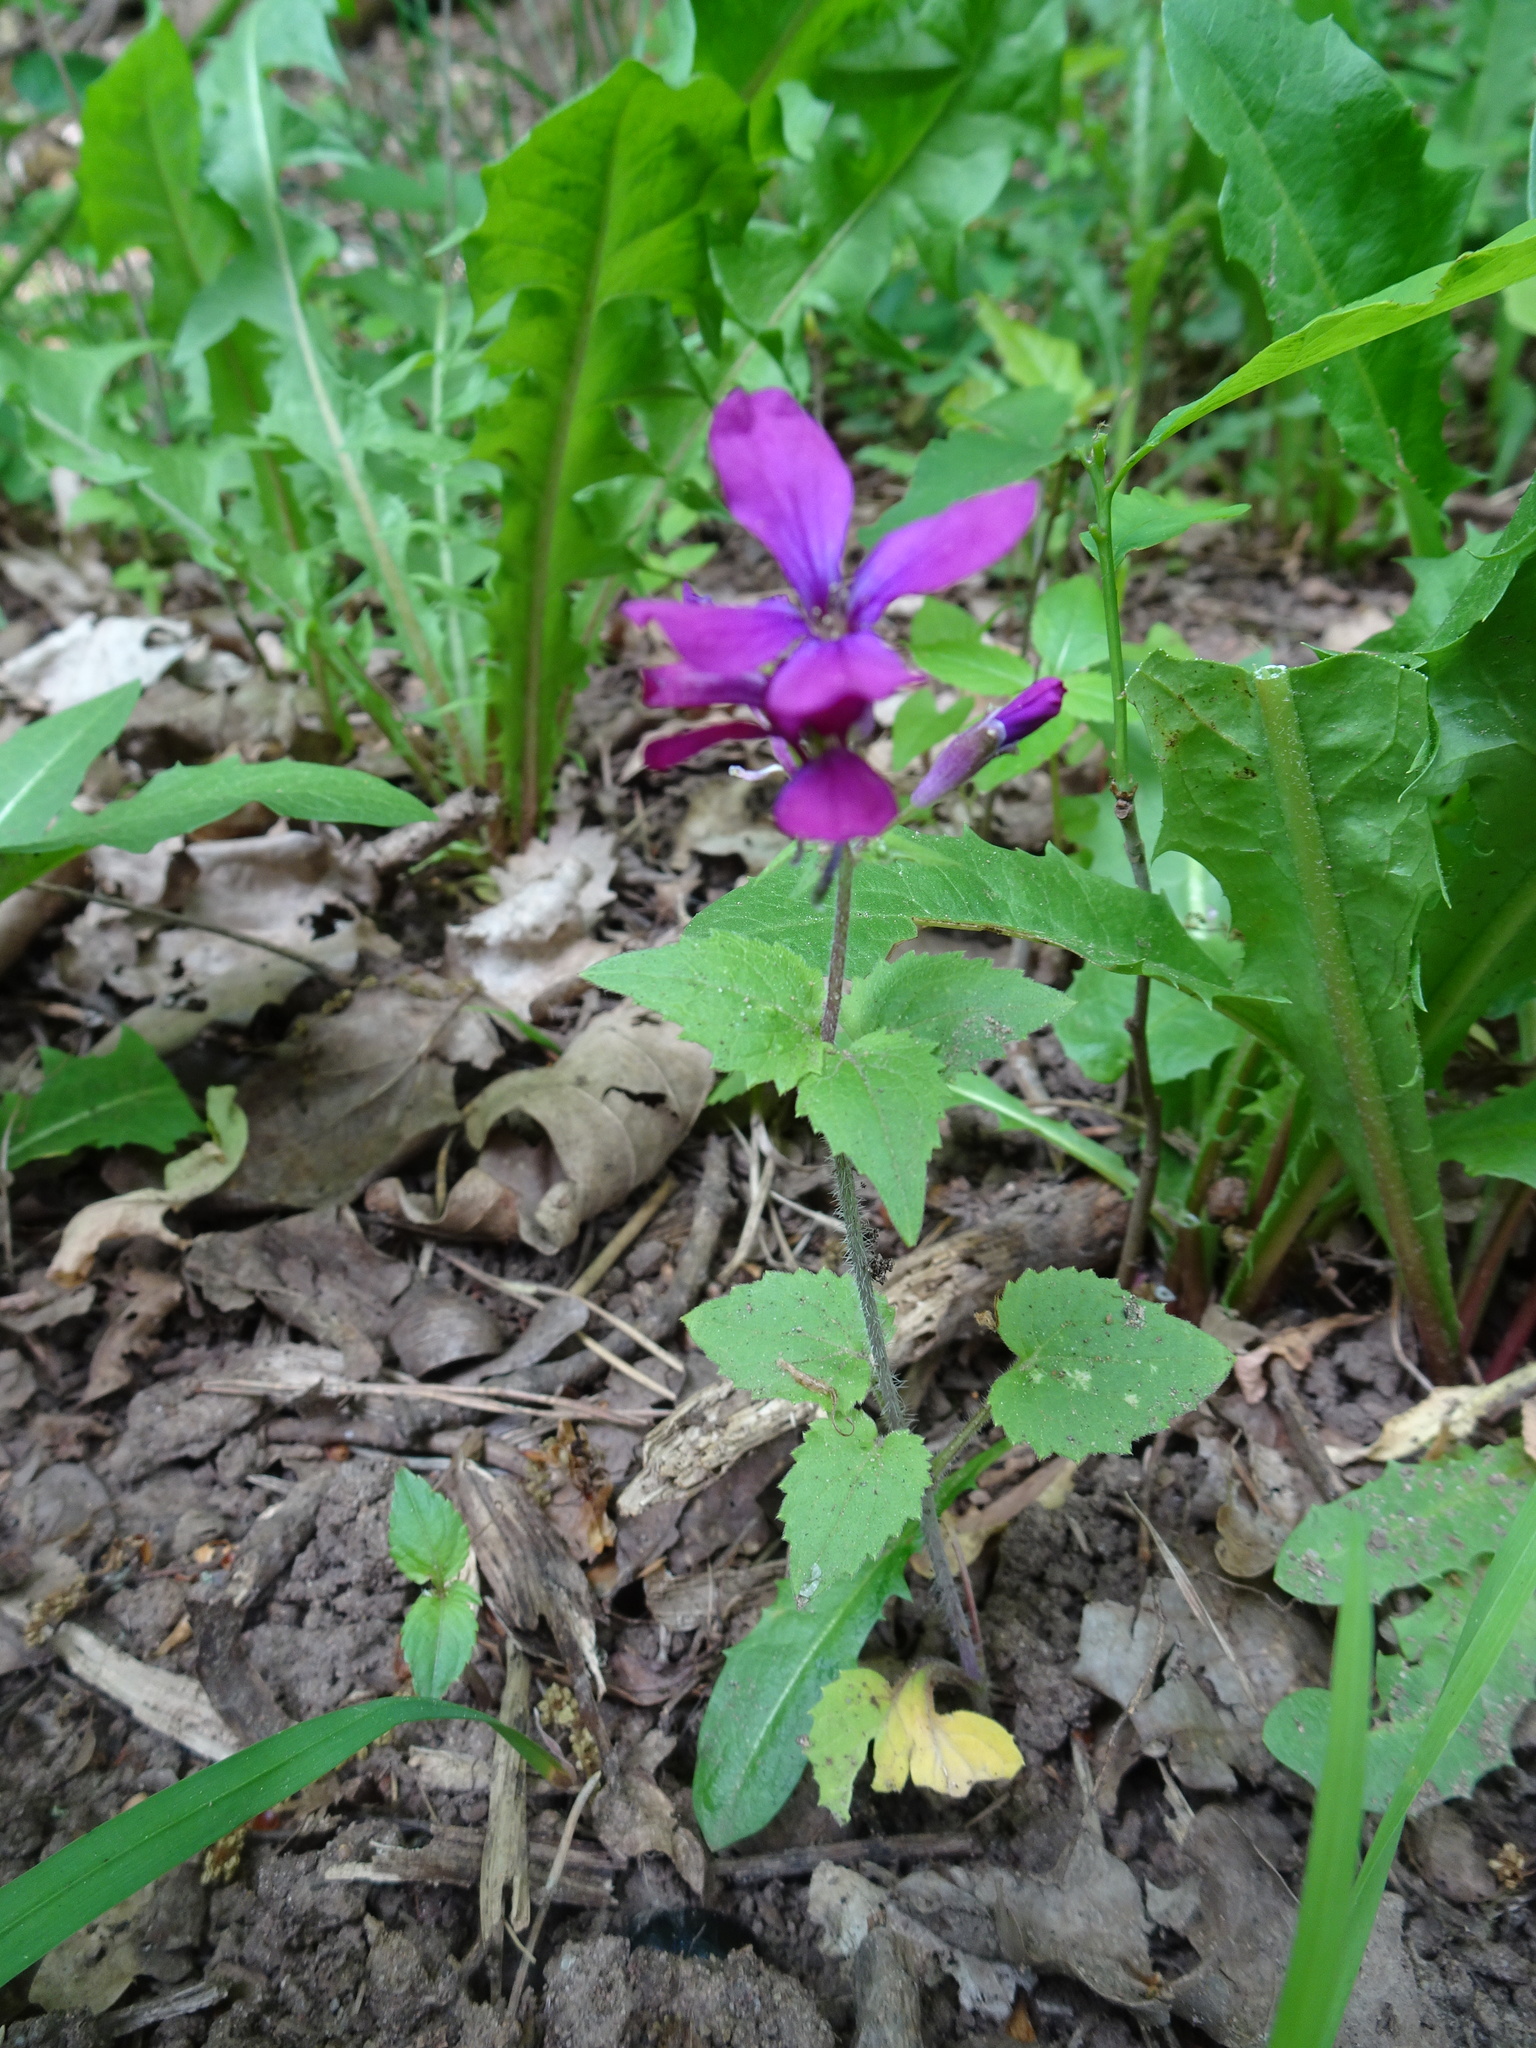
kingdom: Plantae
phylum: Tracheophyta
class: Magnoliopsida
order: Brassicales
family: Brassicaceae
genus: Lunaria
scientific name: Lunaria annua
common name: Honesty
